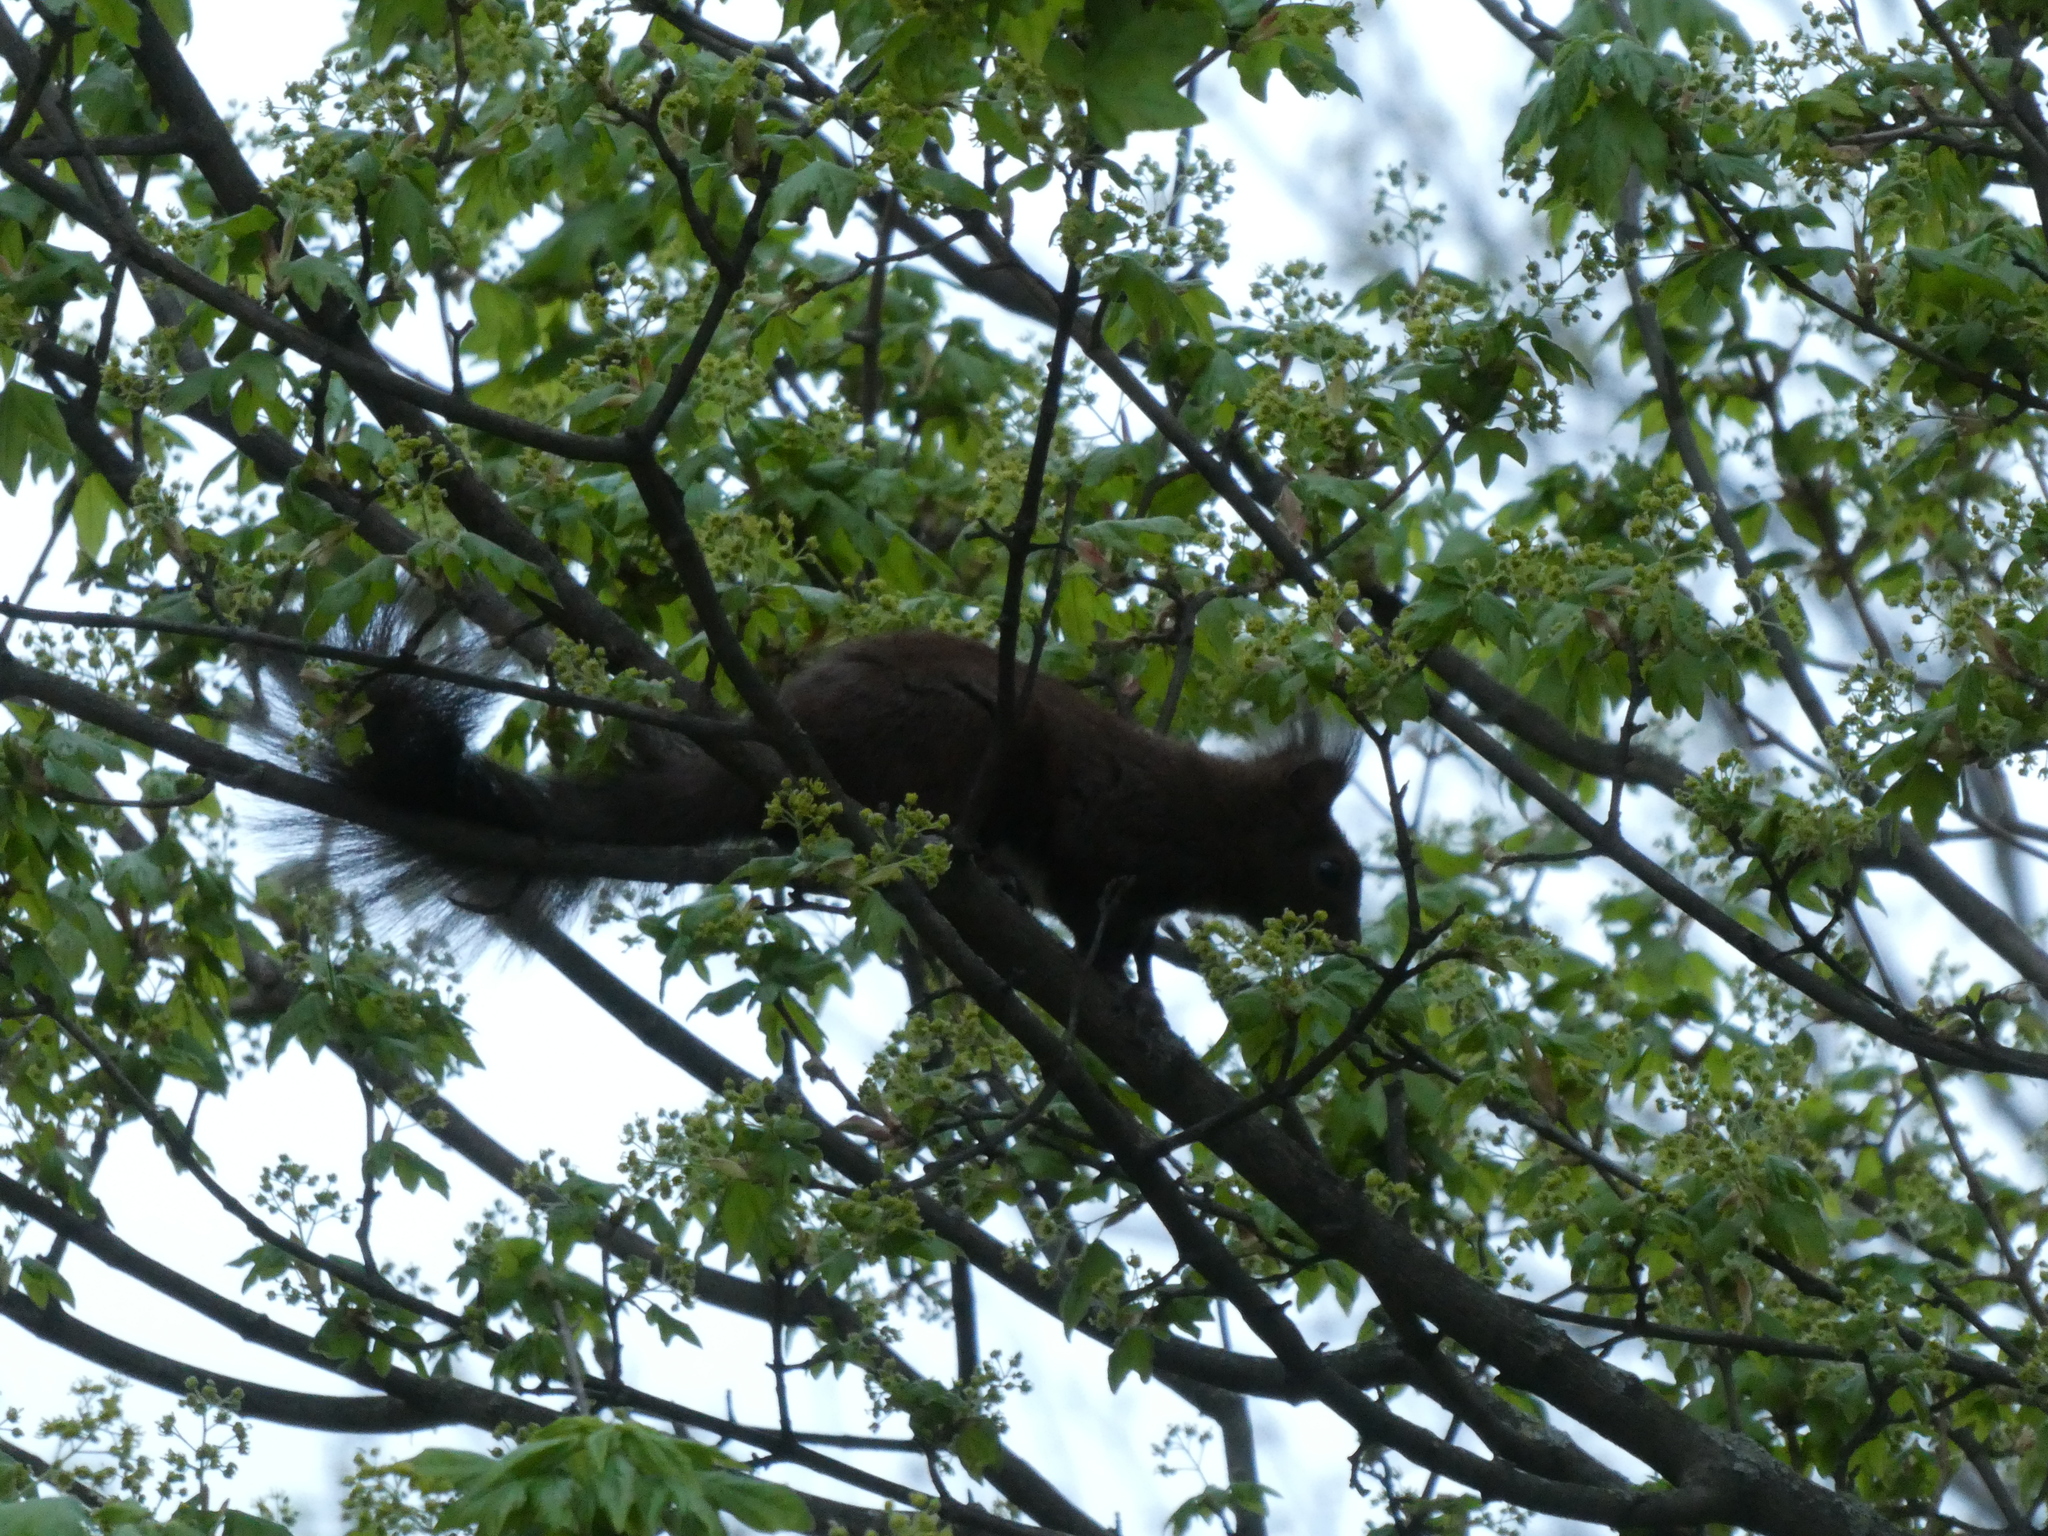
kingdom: Animalia
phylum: Chordata
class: Mammalia
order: Rodentia
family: Sciuridae
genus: Sciurus
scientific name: Sciurus vulgaris
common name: Eurasian red squirrel
